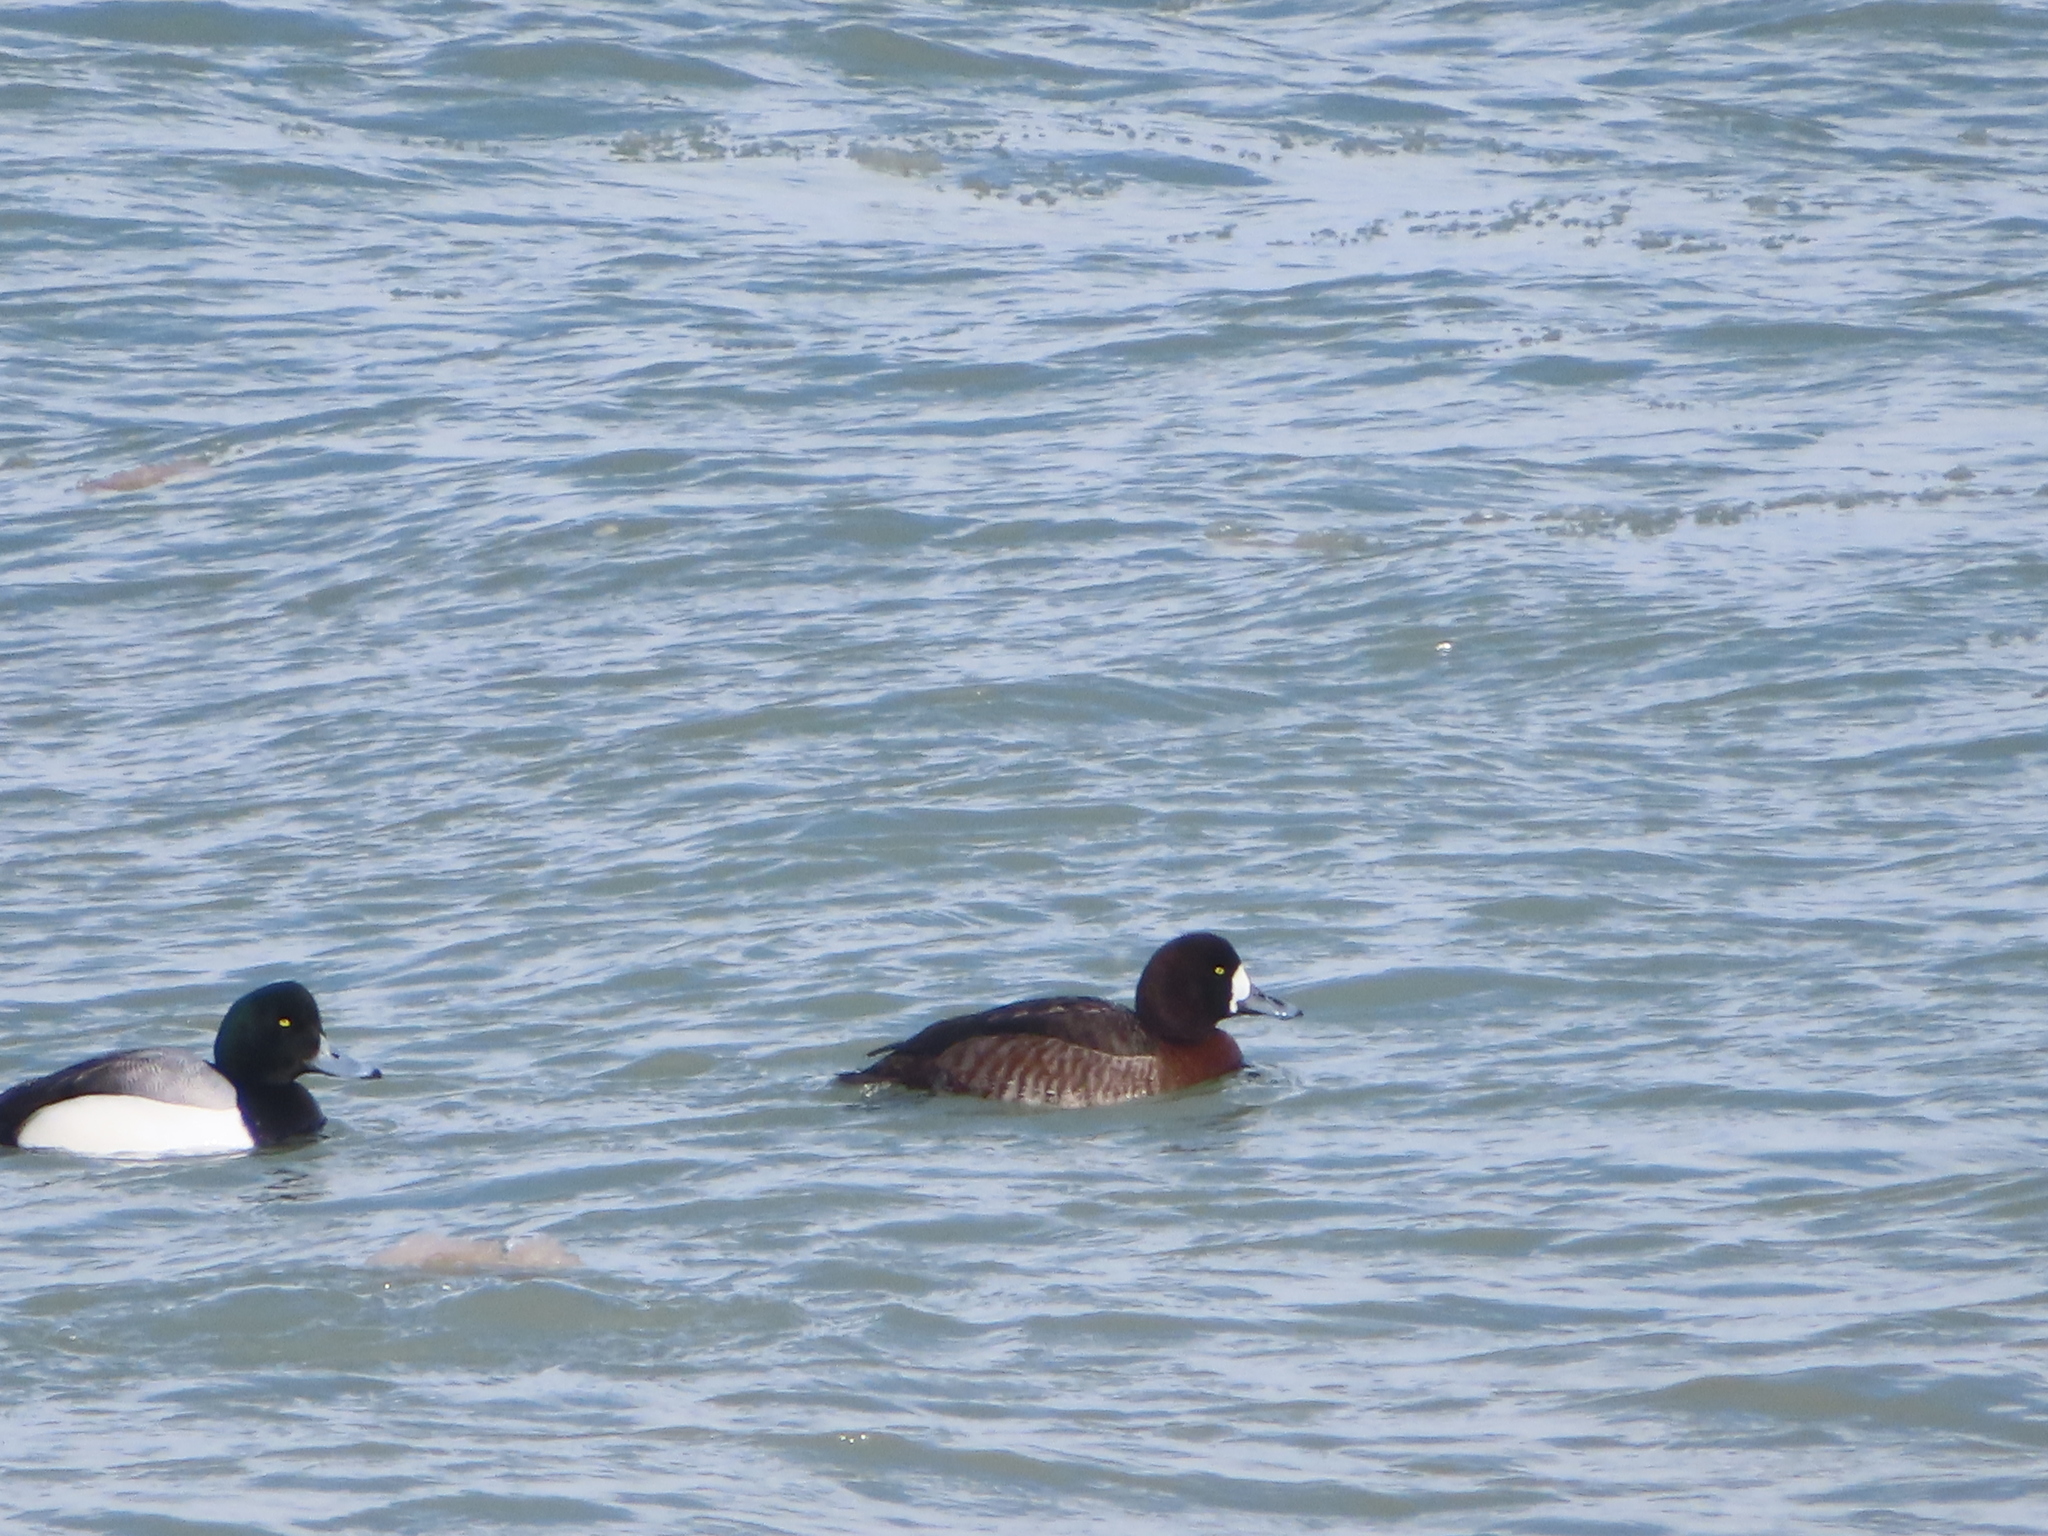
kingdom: Animalia
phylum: Chordata
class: Aves
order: Anseriformes
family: Anatidae
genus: Aythya
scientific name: Aythya marila
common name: Greater scaup
